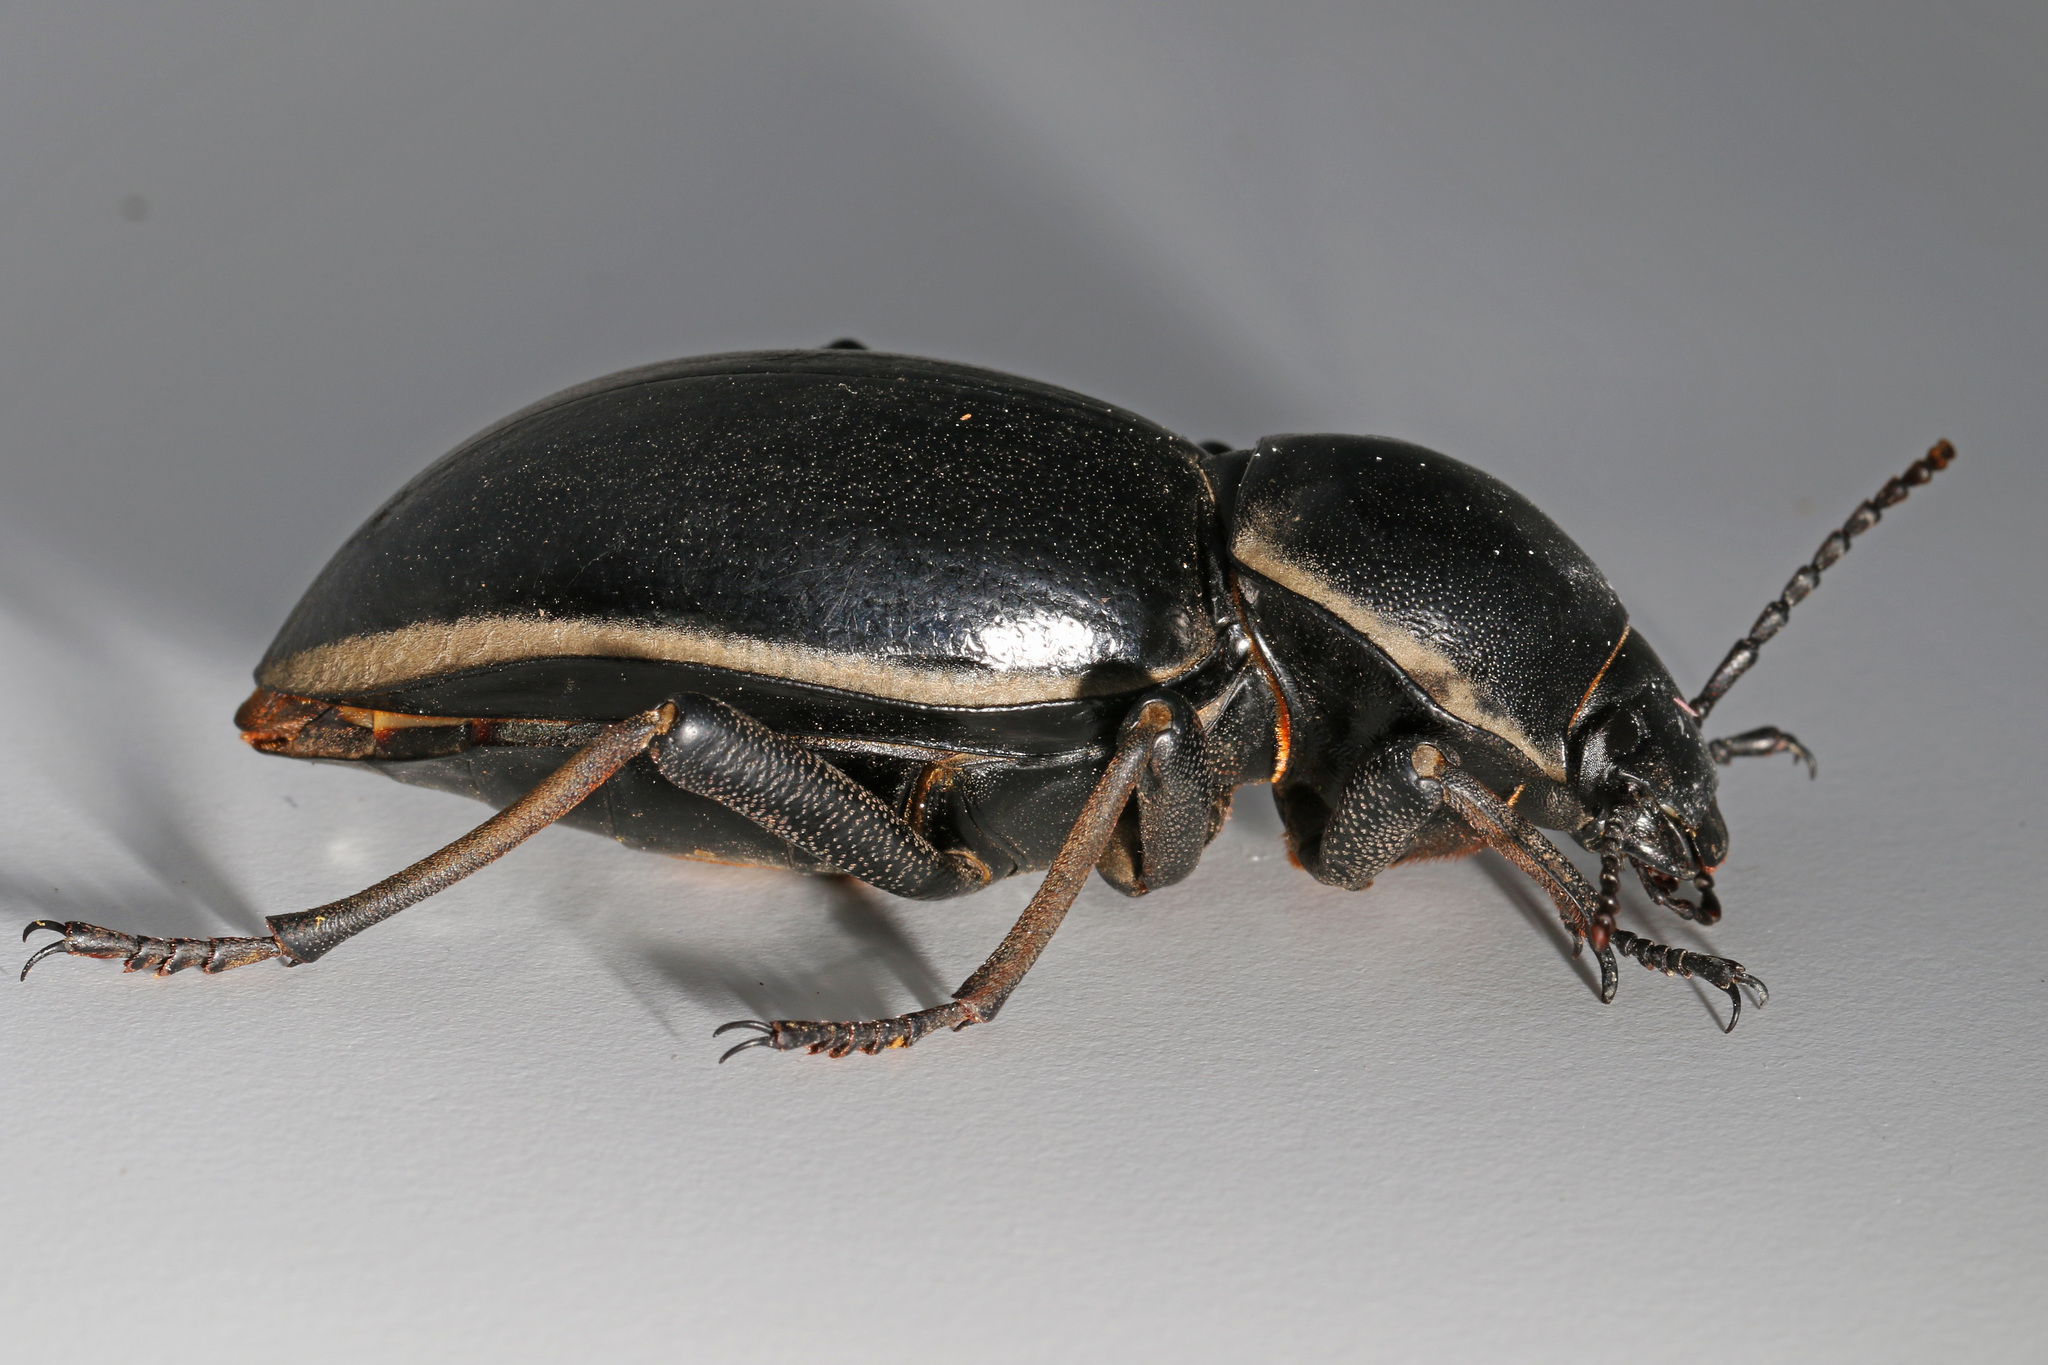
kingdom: Animalia
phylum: Arthropoda
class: Insecta
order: Coleoptera
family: Tenebrionidae
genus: Chiliarchum
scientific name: Chiliarchum
